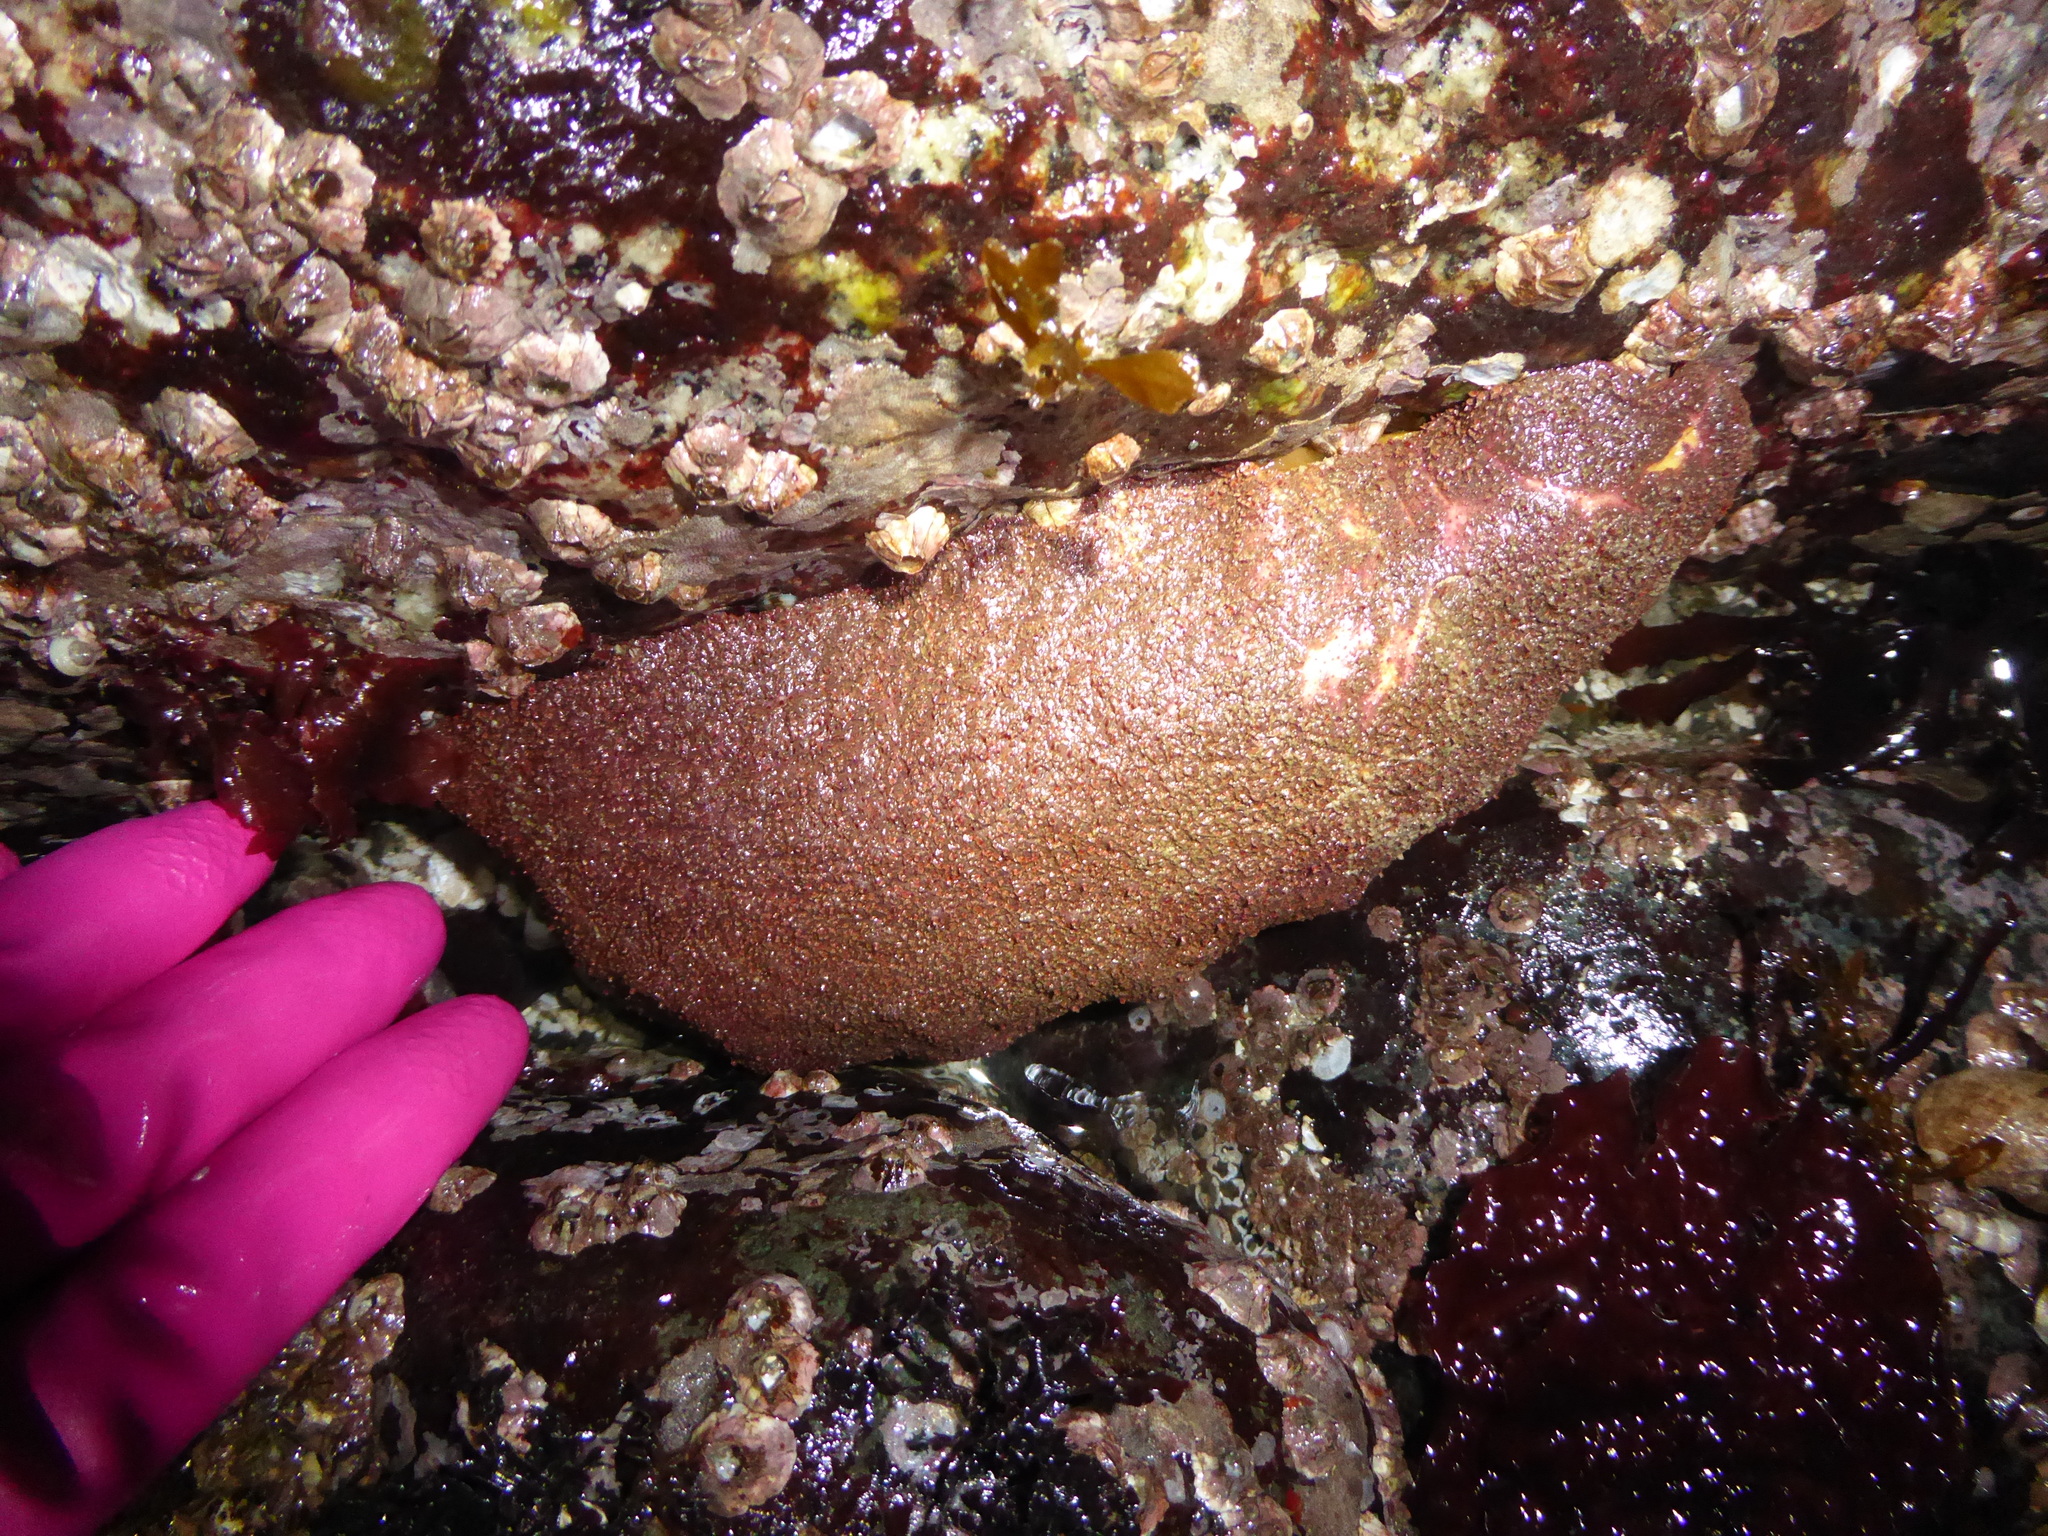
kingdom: Animalia
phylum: Mollusca
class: Polyplacophora
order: Chitonida
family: Acanthochitonidae
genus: Cryptochiton
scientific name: Cryptochiton stelleri
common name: Giant pacific chiton
